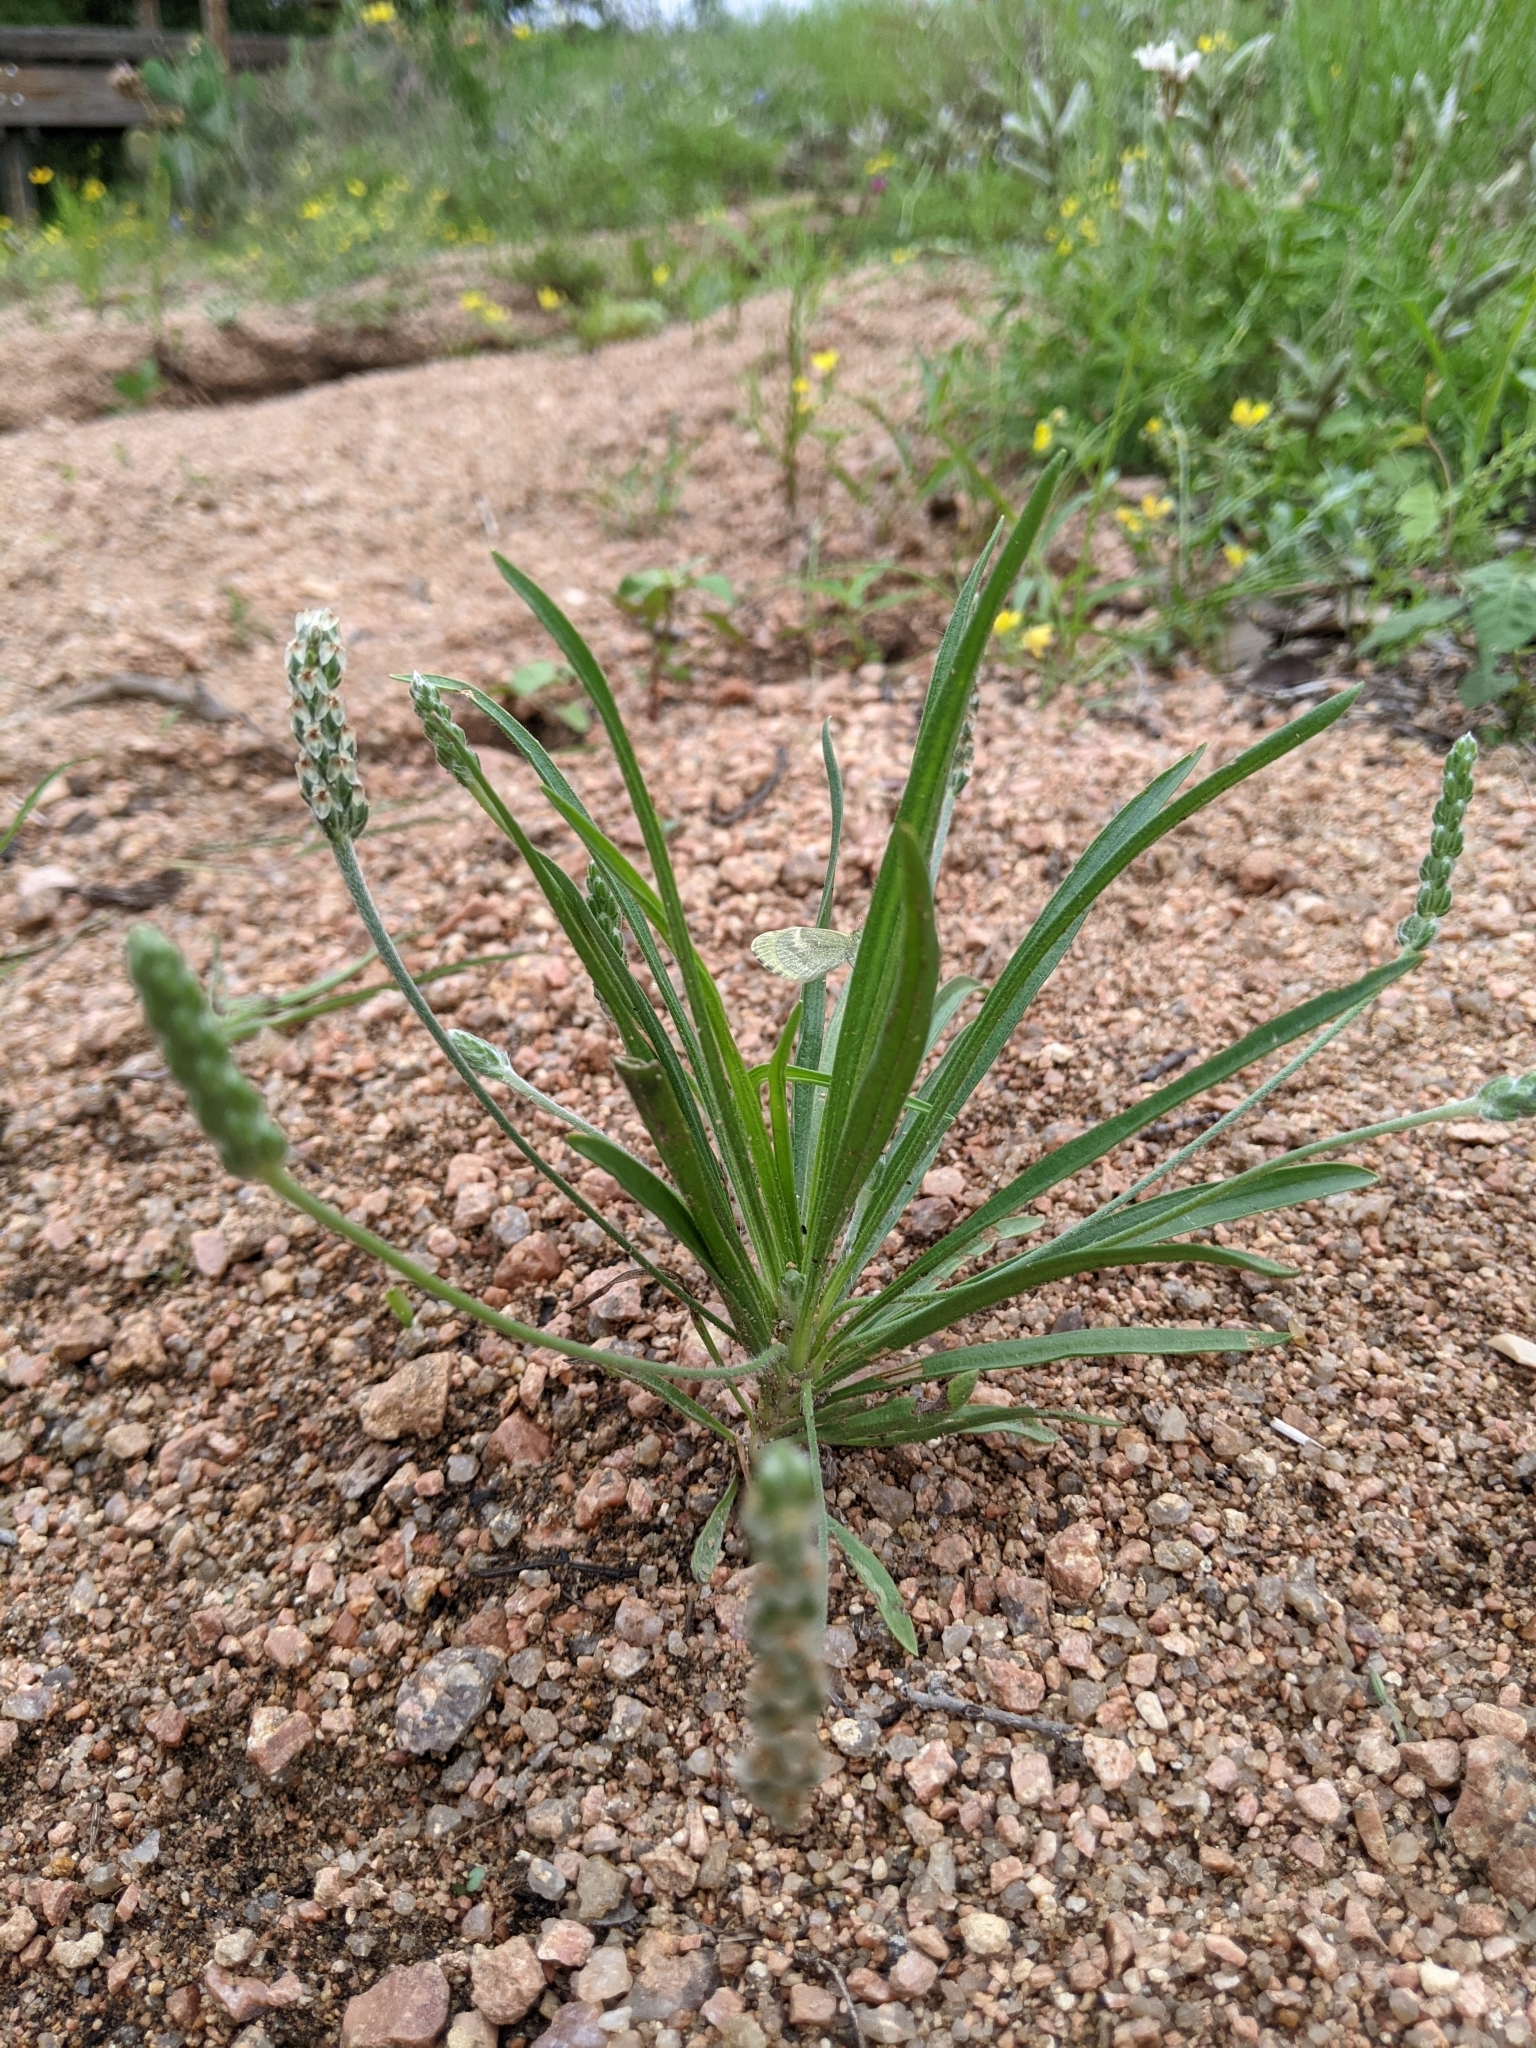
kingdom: Plantae
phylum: Tracheophyta
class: Magnoliopsida
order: Lamiales
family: Plantaginaceae
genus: Plantago
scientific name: Plantago helleri
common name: Heller's plantain
